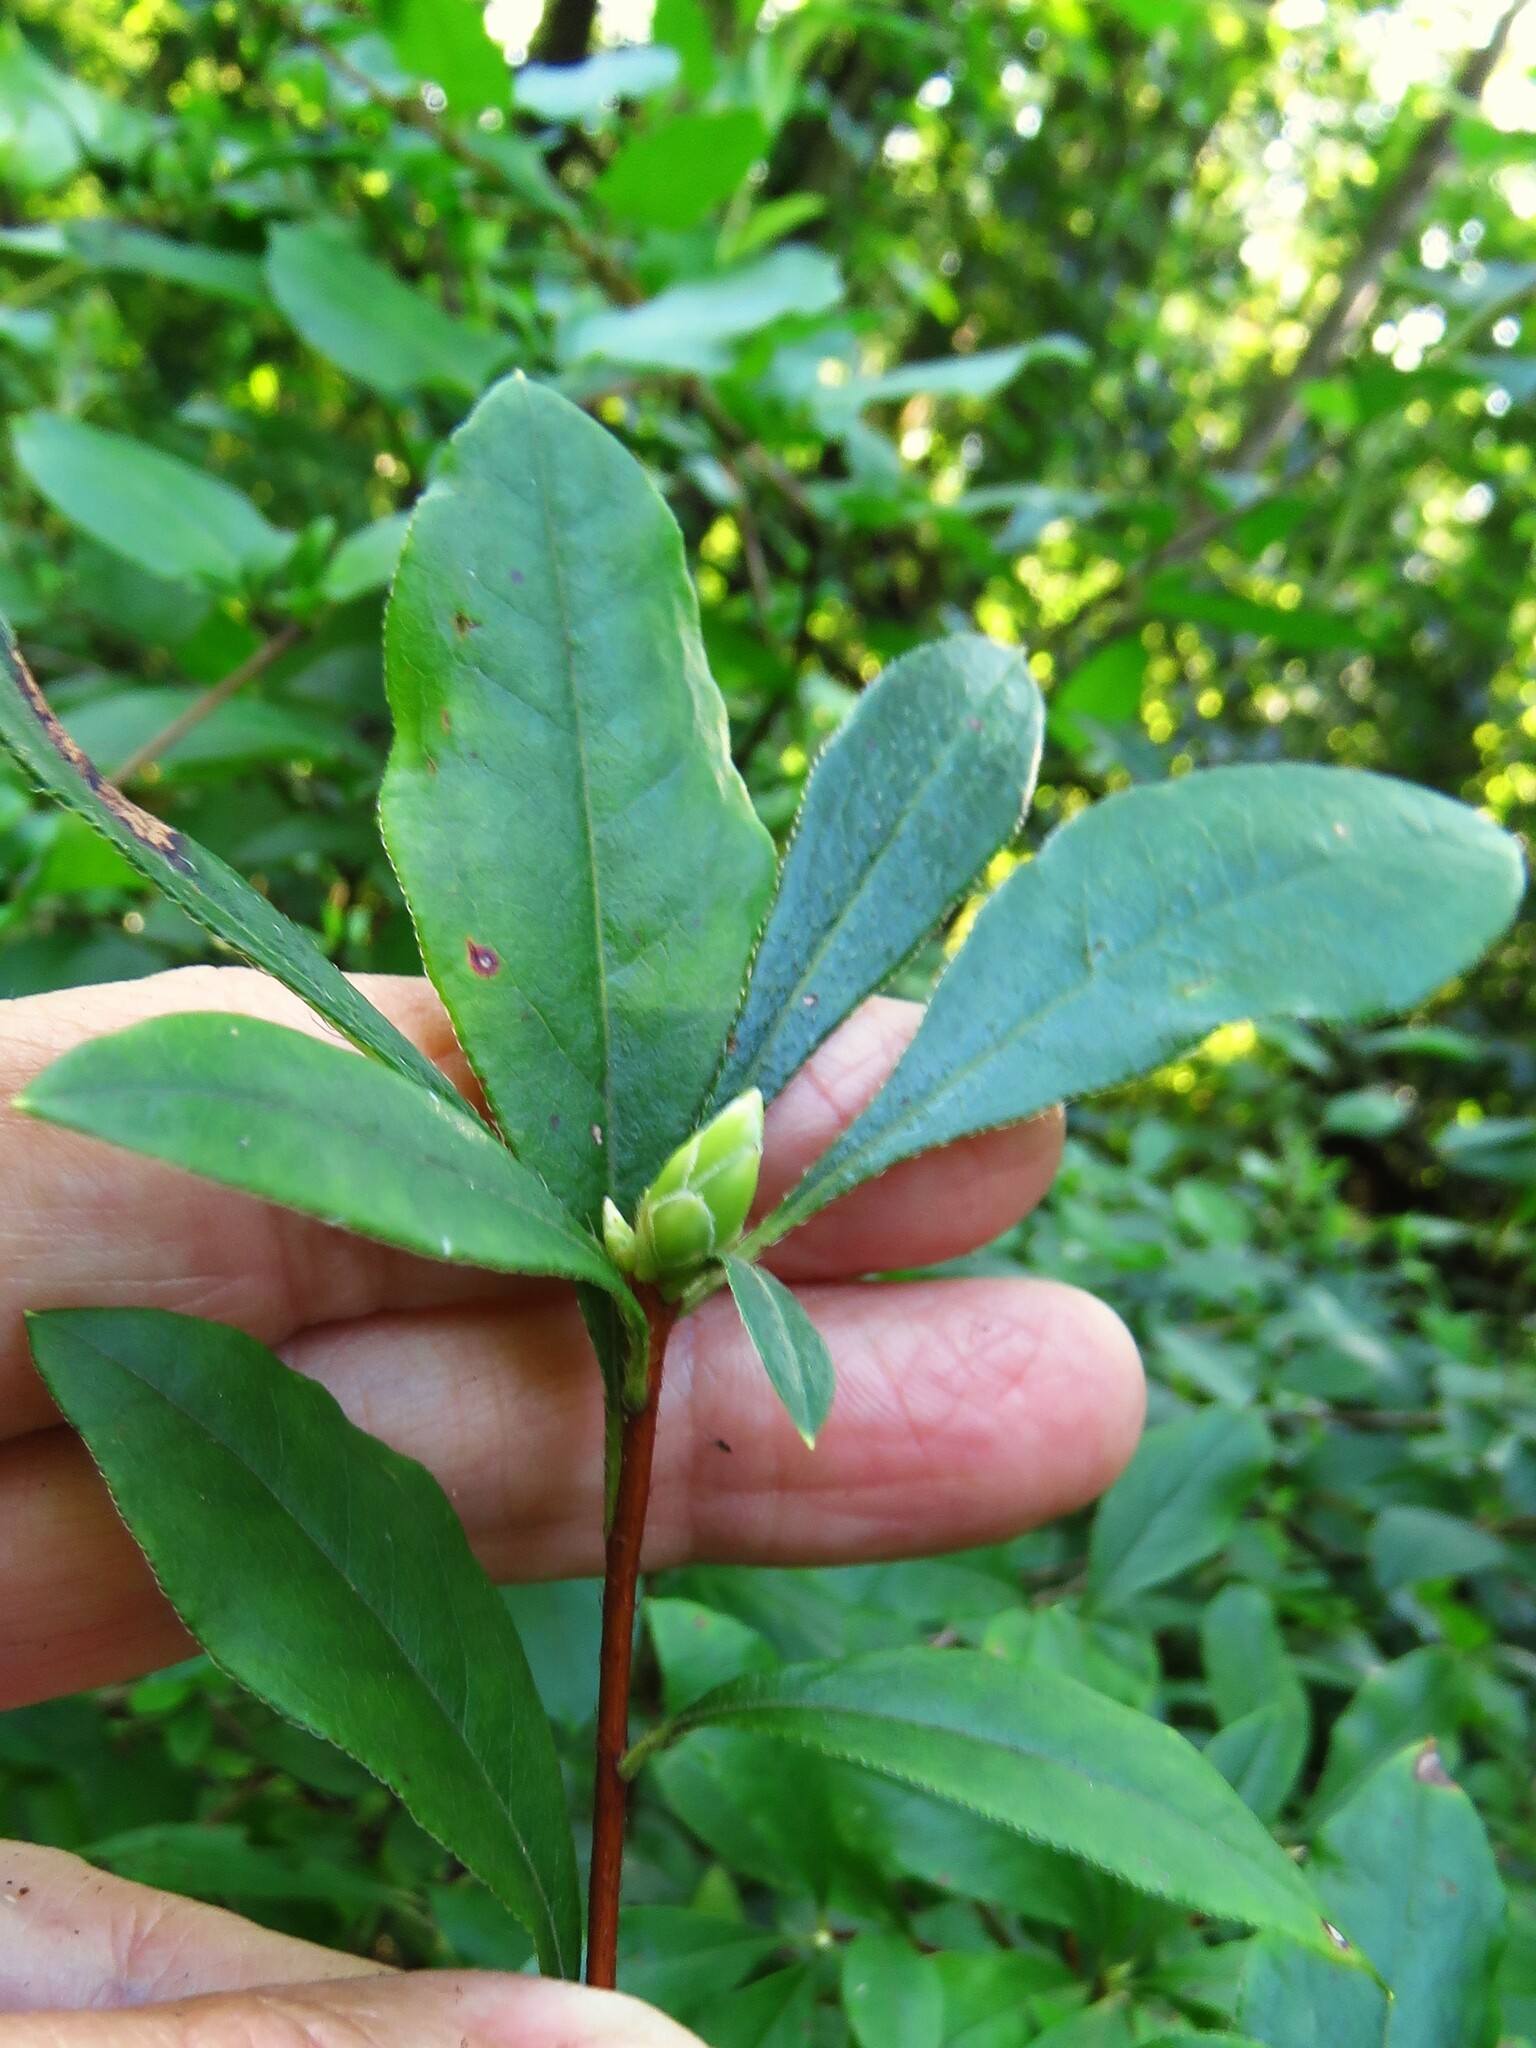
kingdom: Plantae
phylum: Tracheophyta
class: Magnoliopsida
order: Ericales
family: Ericaceae
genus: Rhododendron
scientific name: Rhododendron viscosum
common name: Clammy azalea
